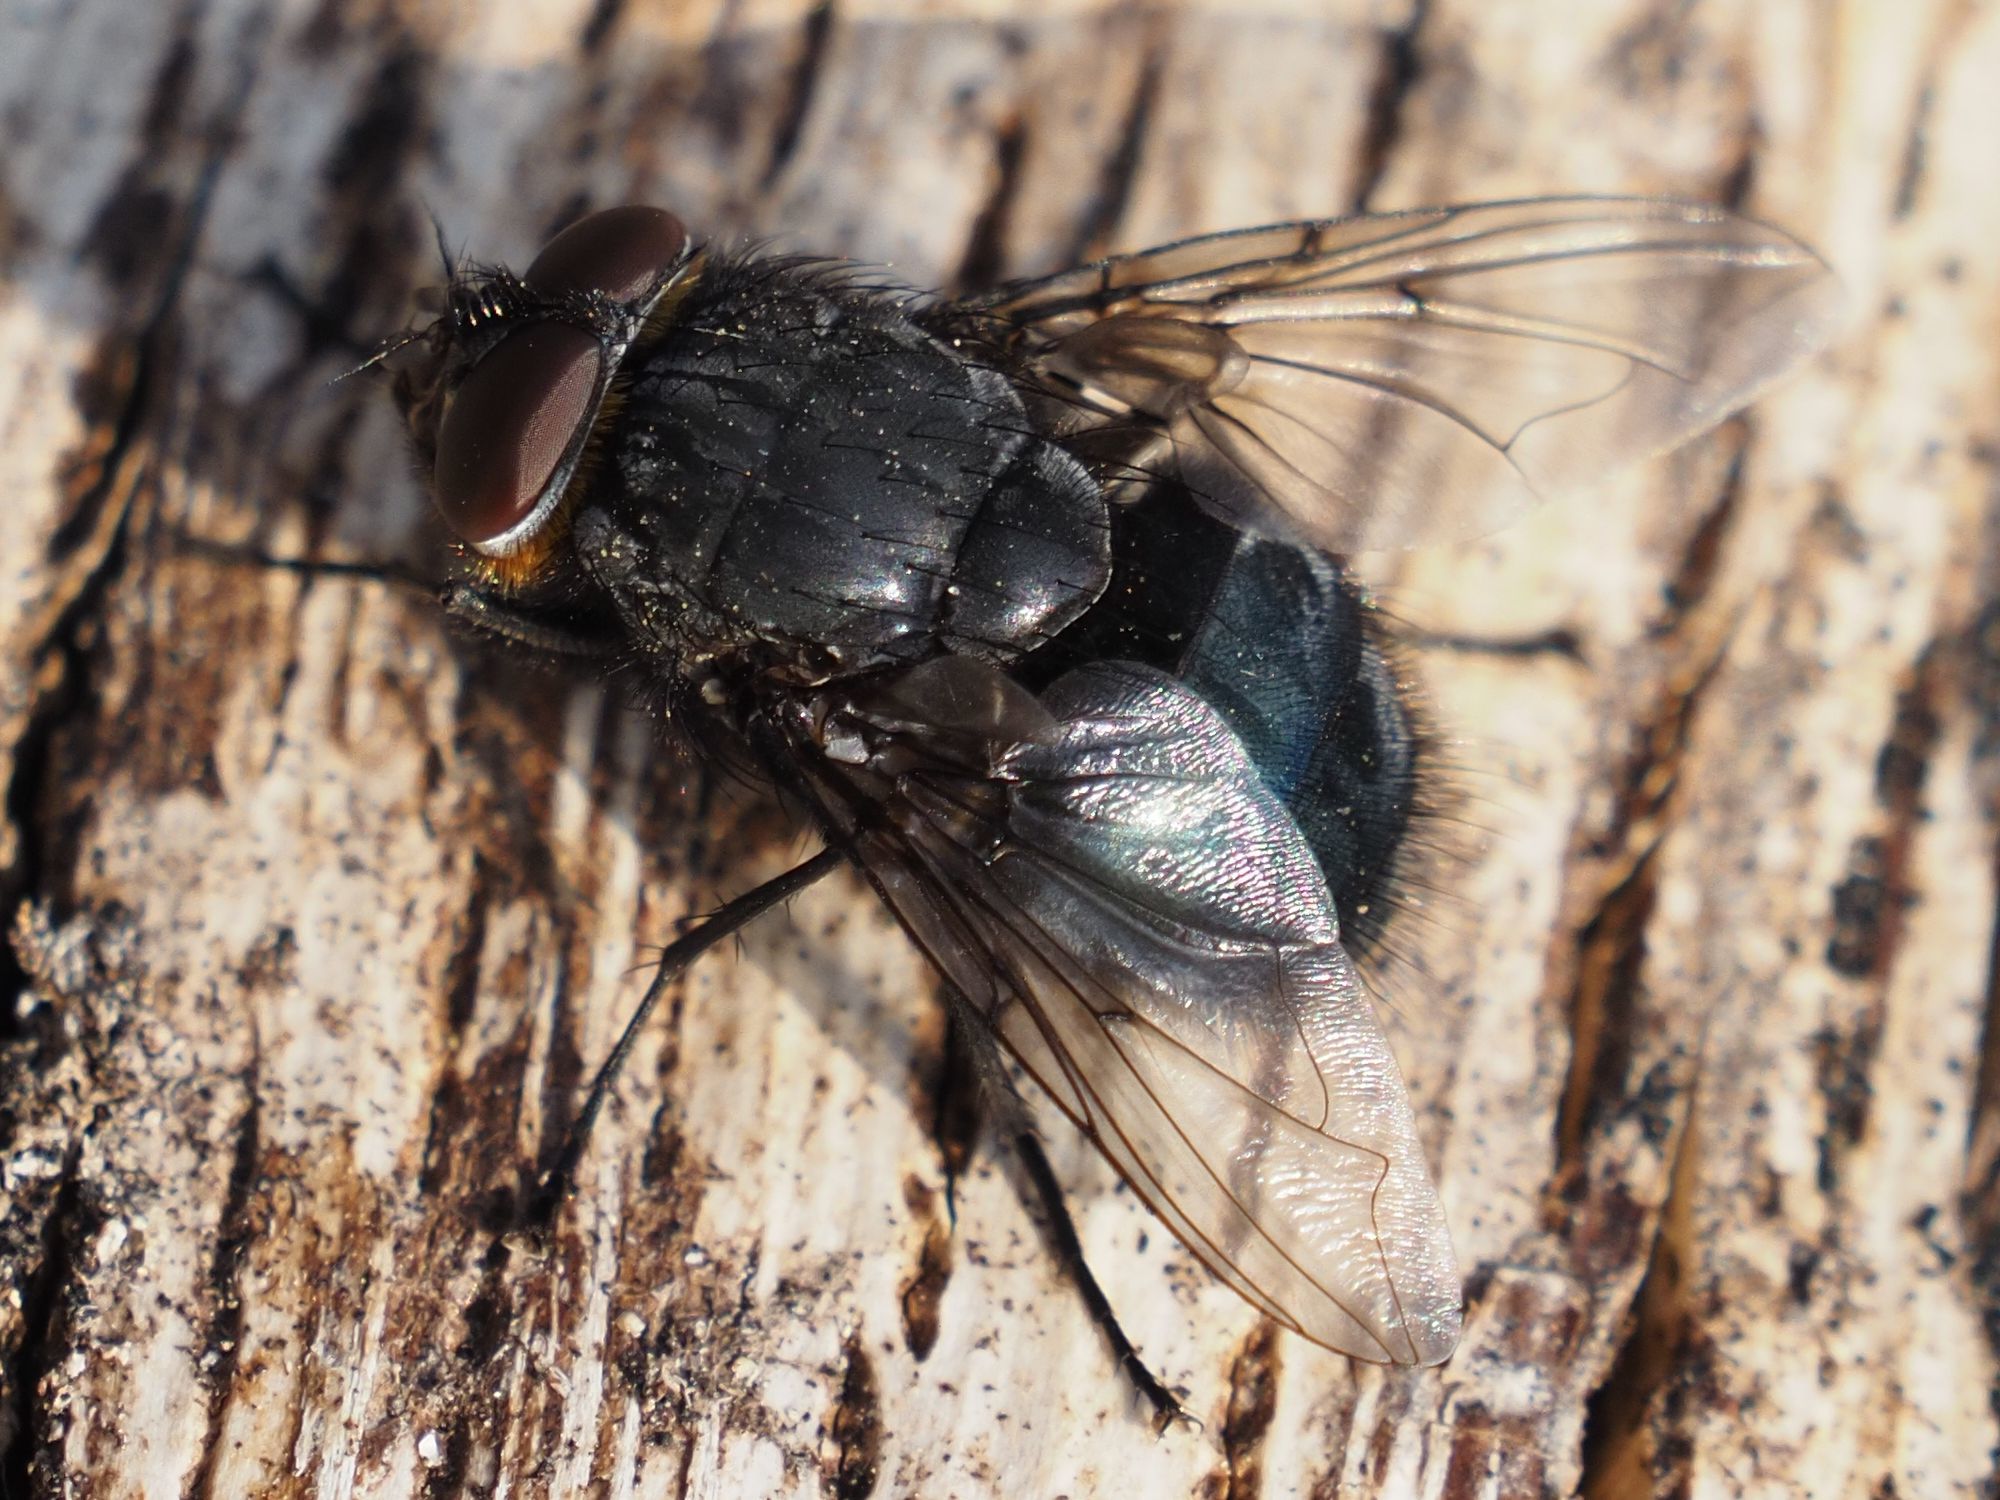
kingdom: Animalia
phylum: Arthropoda
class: Insecta
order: Diptera
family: Calliphoridae
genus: Calliphora
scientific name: Calliphora vomitoria
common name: Blue bottle fly
